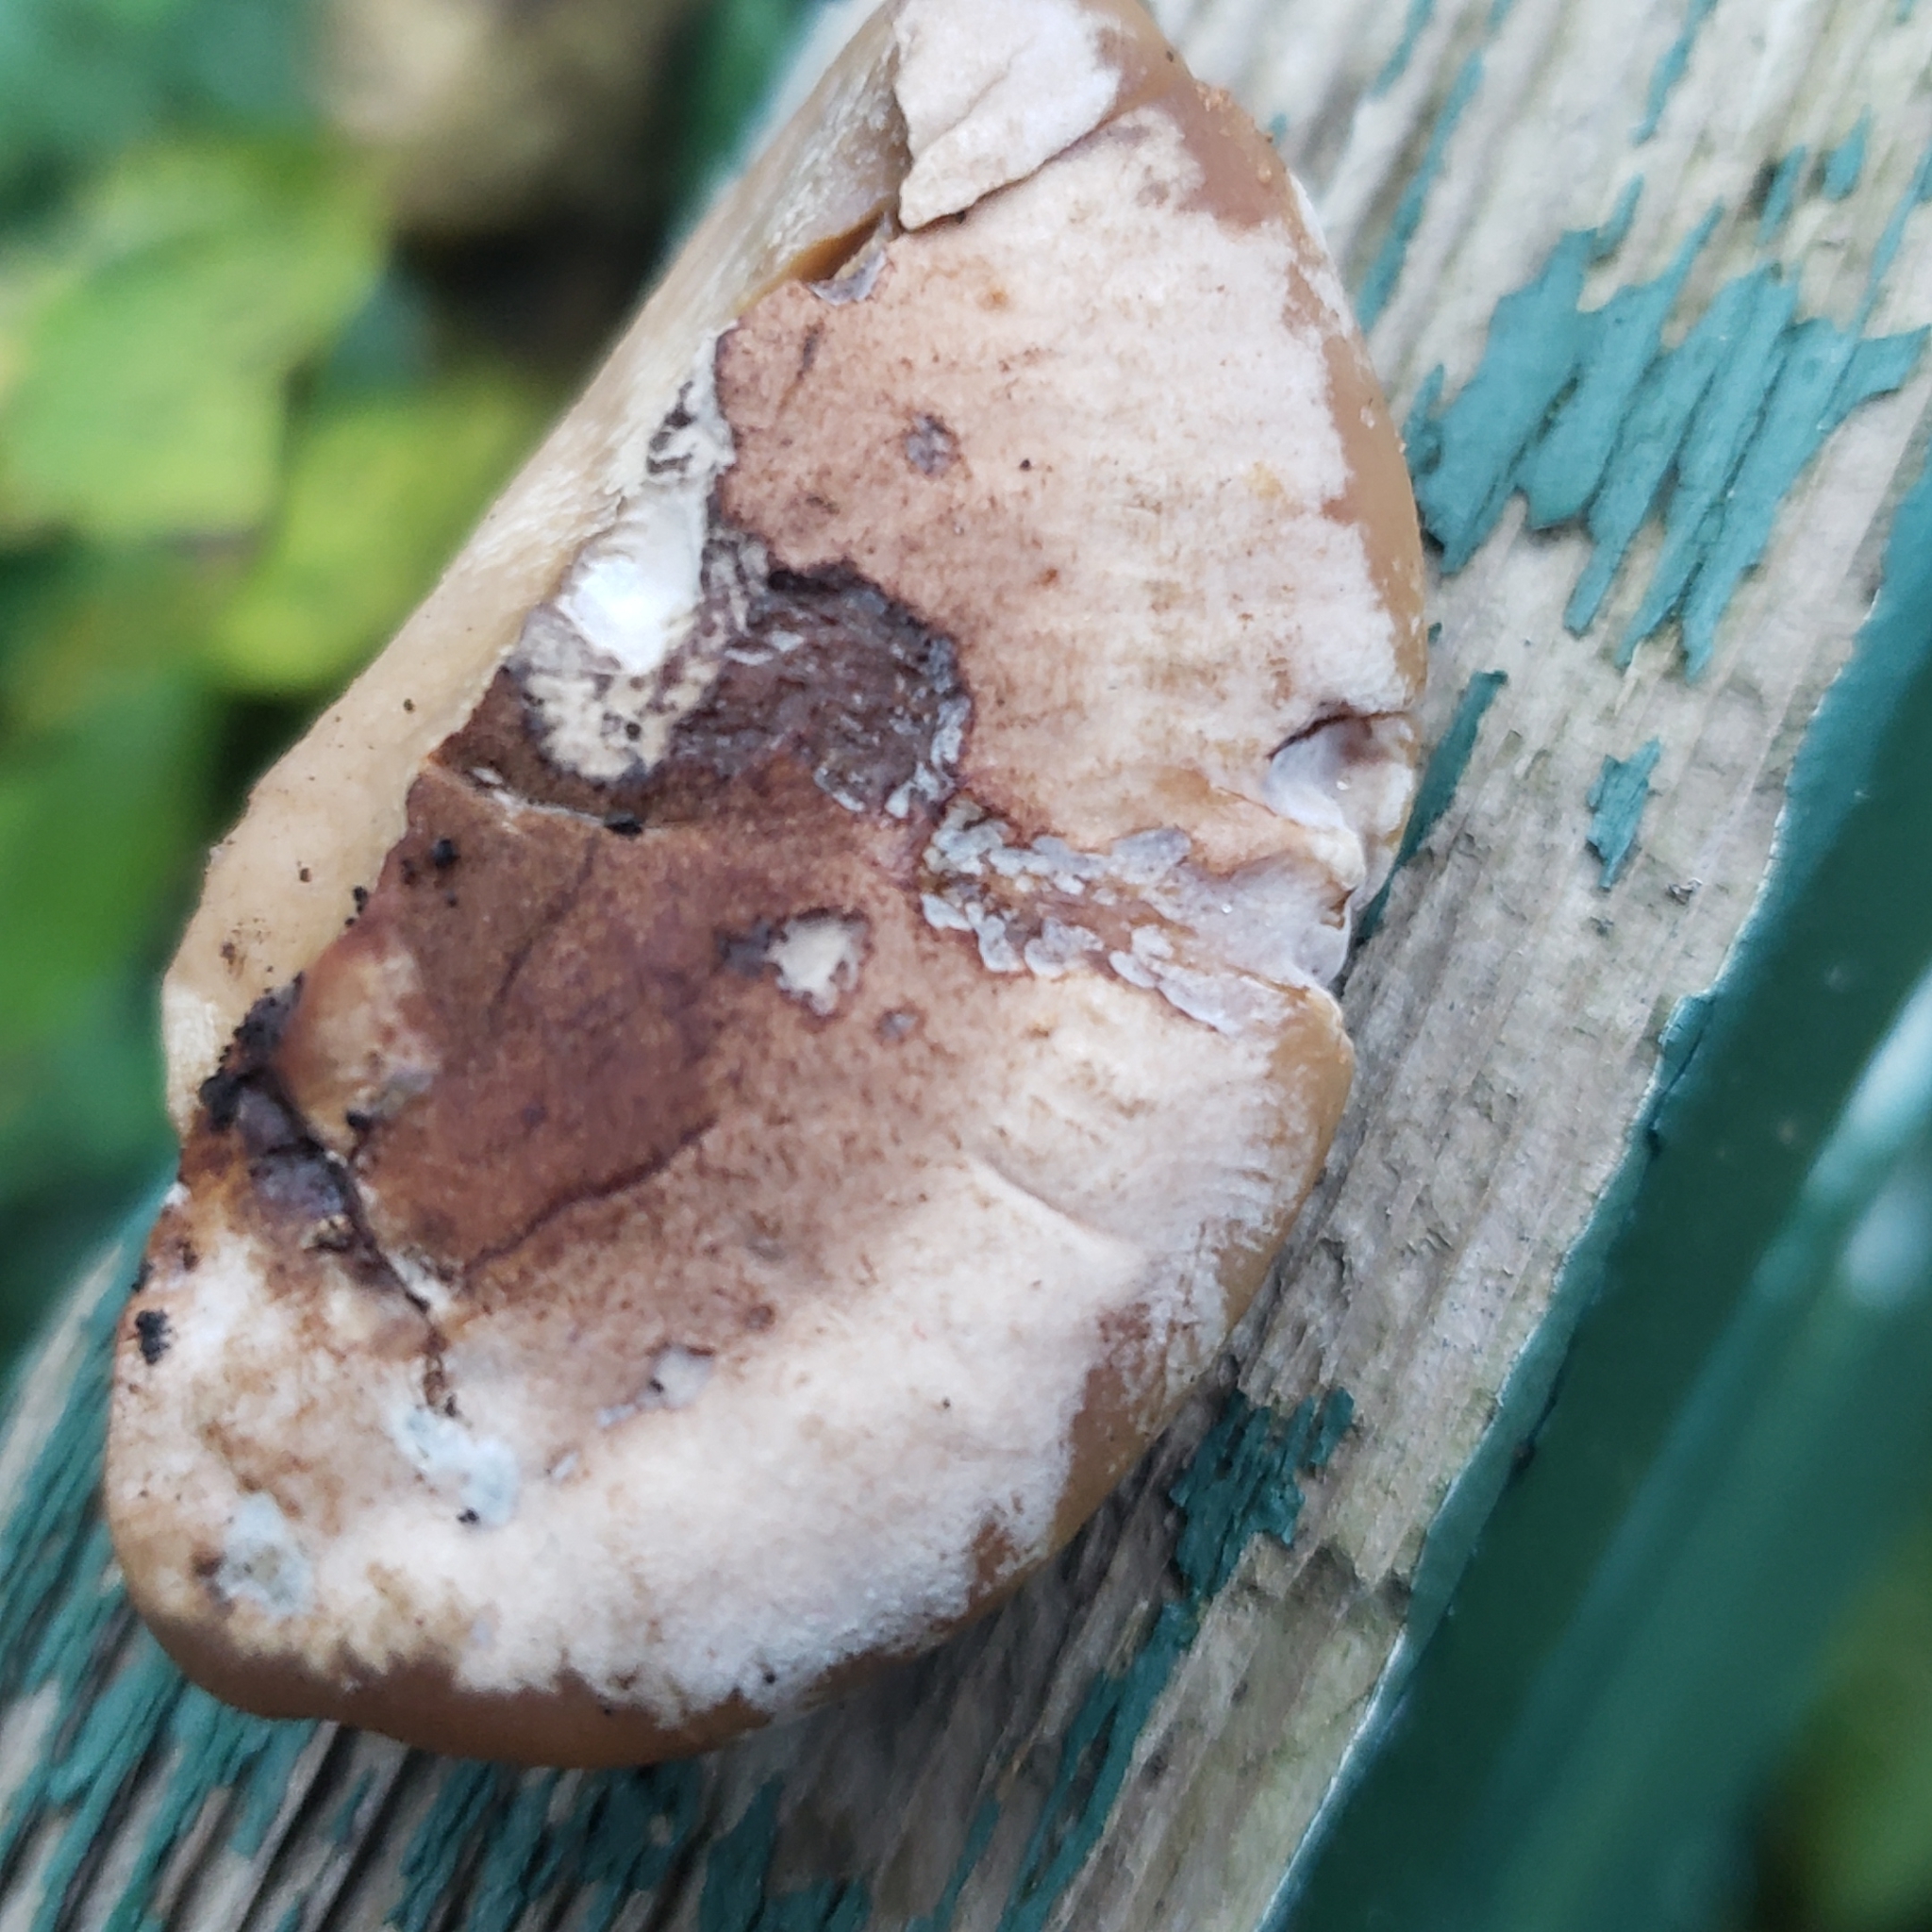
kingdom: Fungi
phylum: Basidiomycota
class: Agaricomycetes
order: Polyporales
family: Ischnodermataceae
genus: Ischnoderma
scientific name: Ischnoderma resinosum
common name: Resinous polypore
